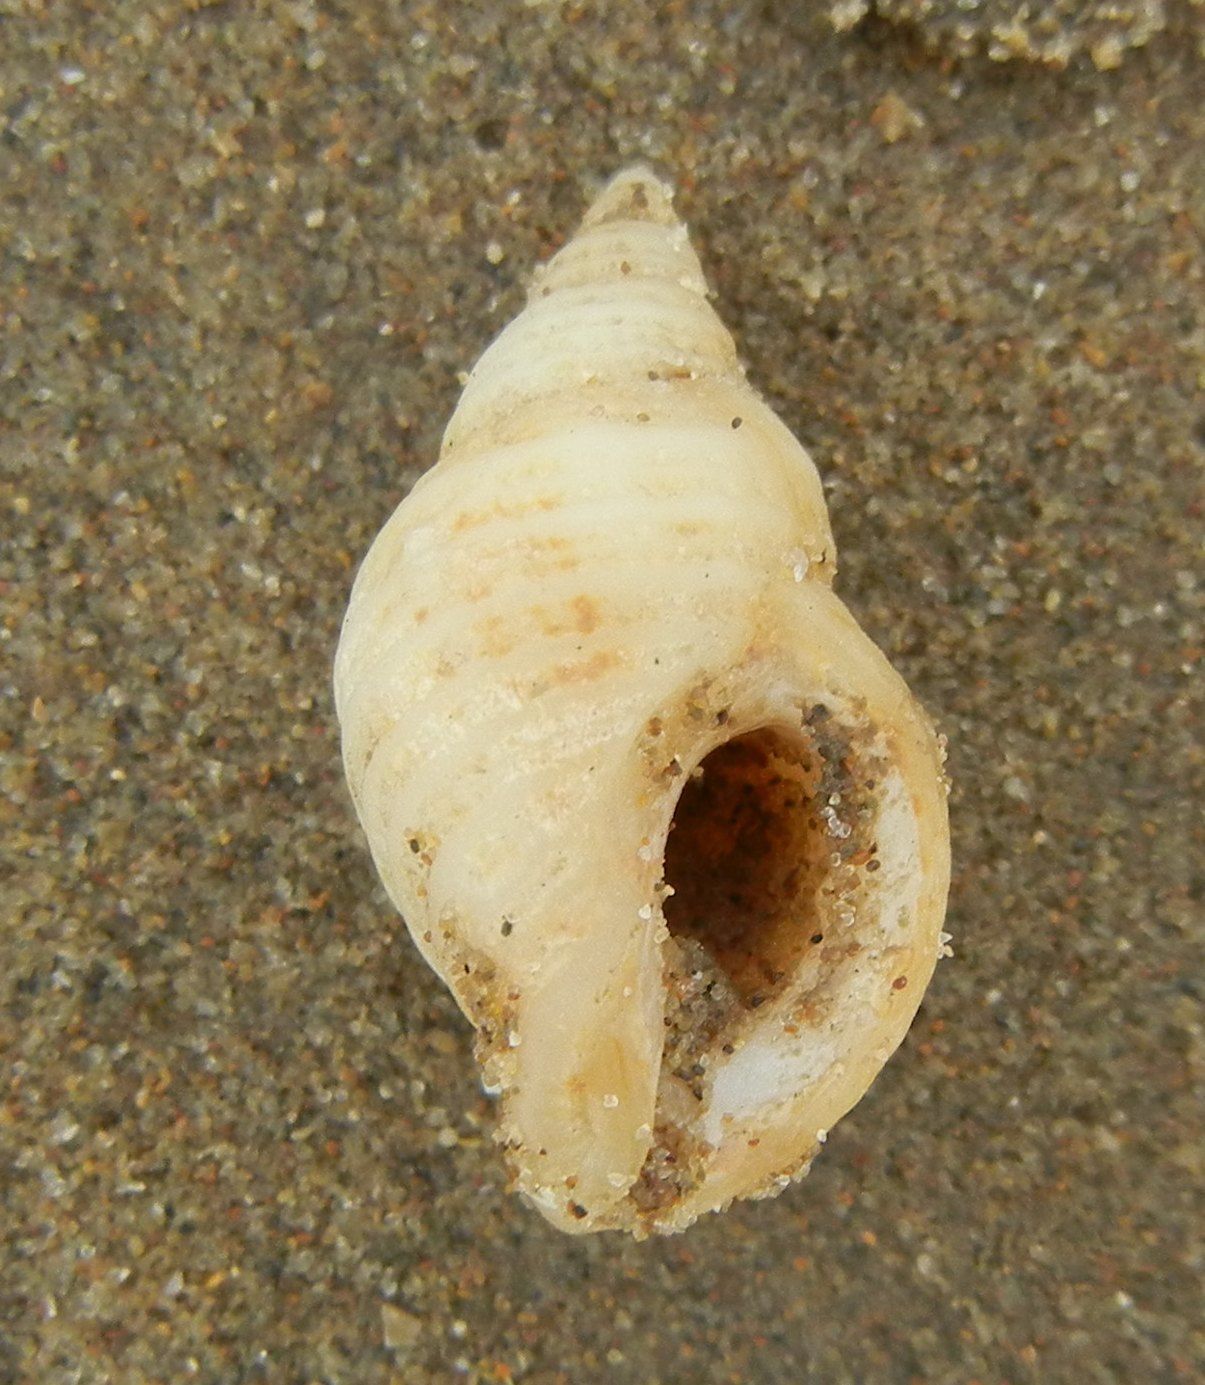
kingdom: Animalia
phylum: Mollusca
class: Gastropoda
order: Neogastropoda
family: Muricidae
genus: Nucella
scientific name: Nucella lapillus
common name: Dog whelk
